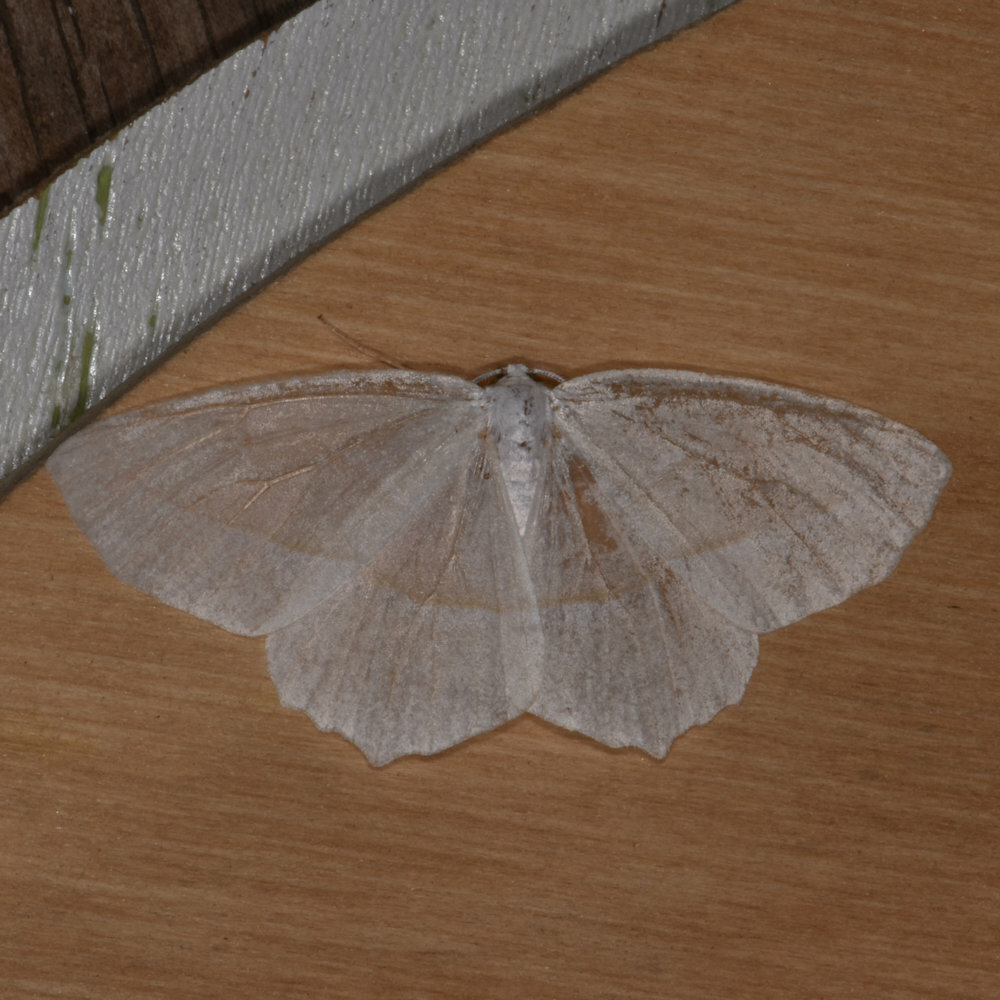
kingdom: Animalia
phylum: Arthropoda
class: Insecta
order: Lepidoptera
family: Geometridae
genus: Campaea
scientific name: Campaea perlata
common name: Fringed looper
